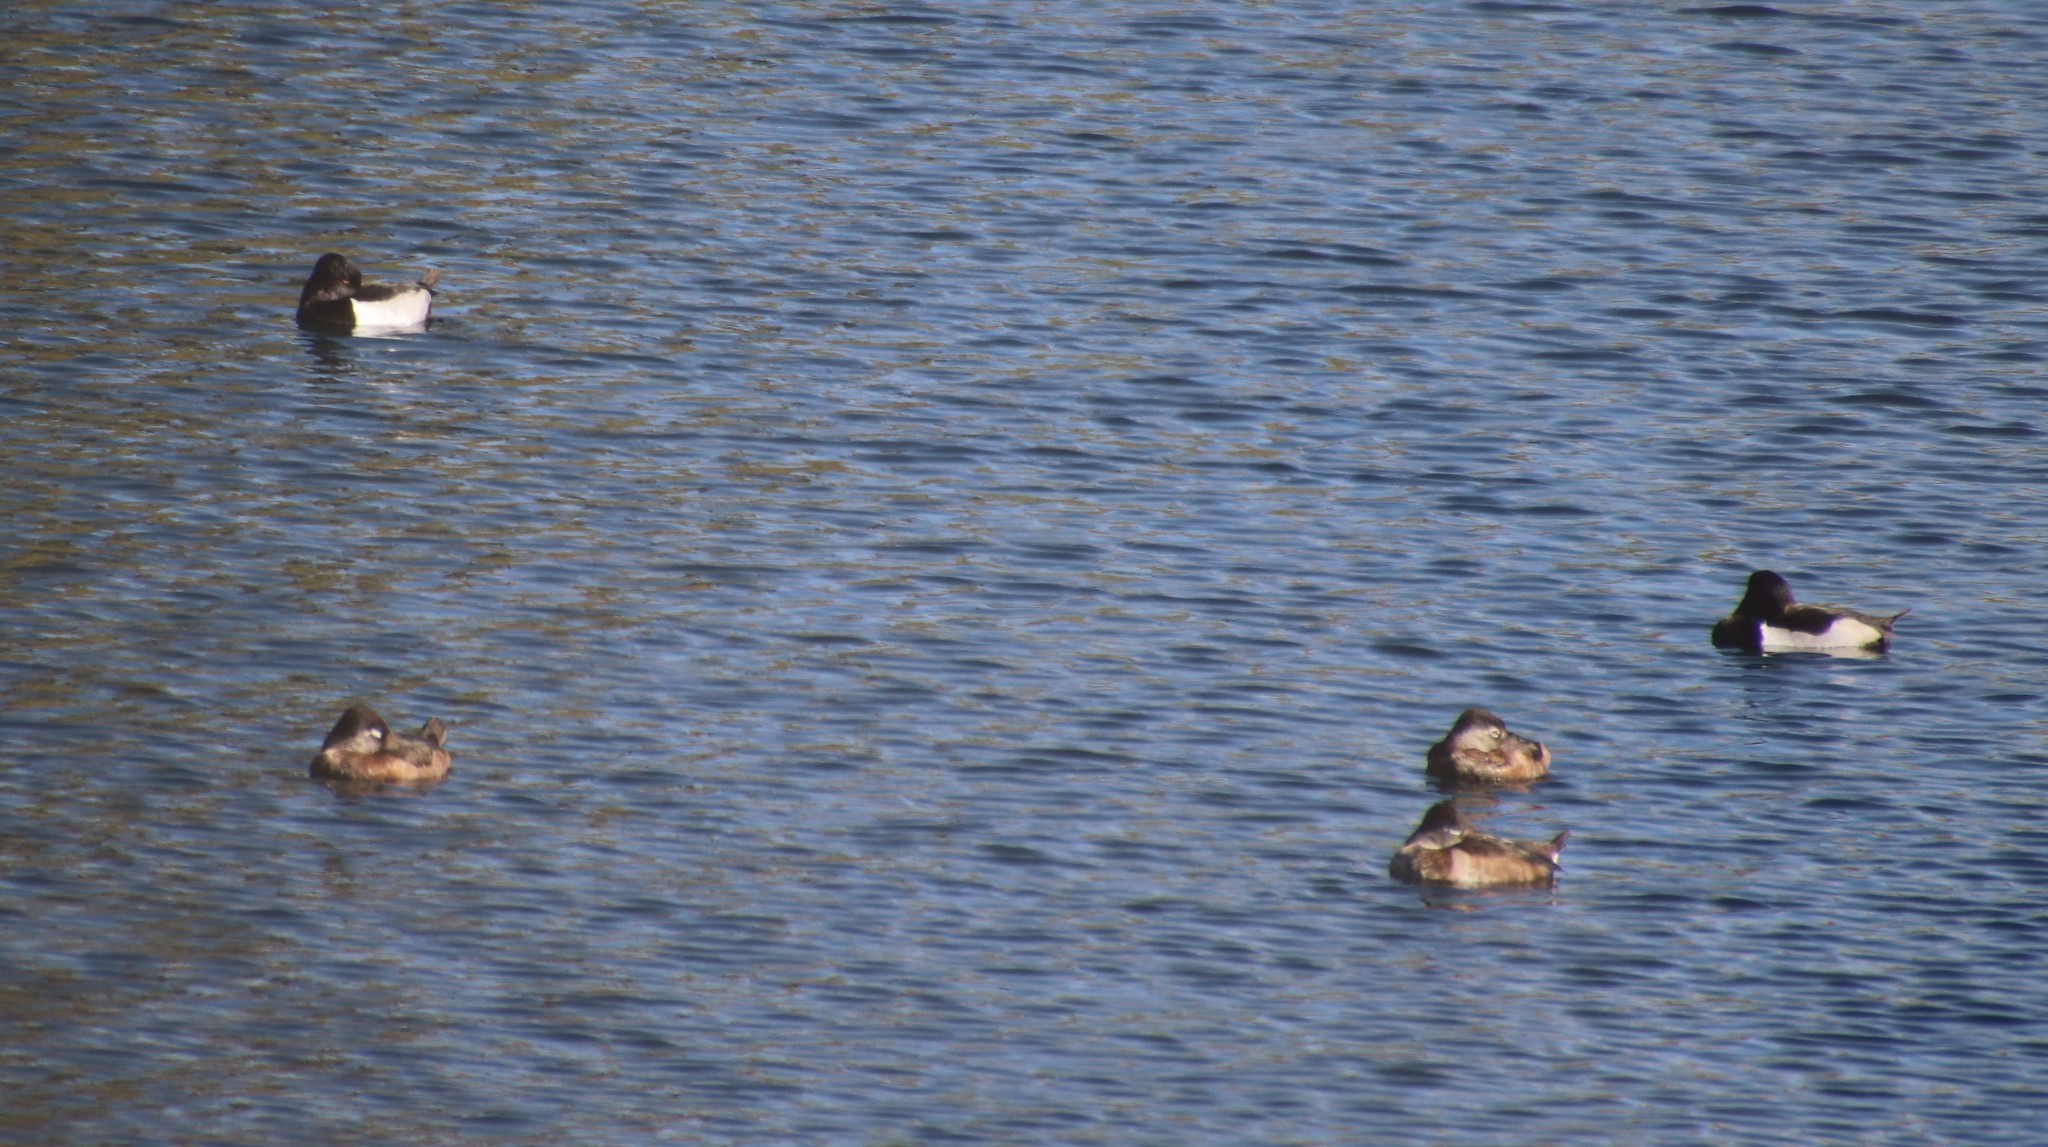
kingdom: Animalia
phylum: Chordata
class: Aves
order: Anseriformes
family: Anatidae
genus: Aythya
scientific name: Aythya collaris
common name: Ring-necked duck
